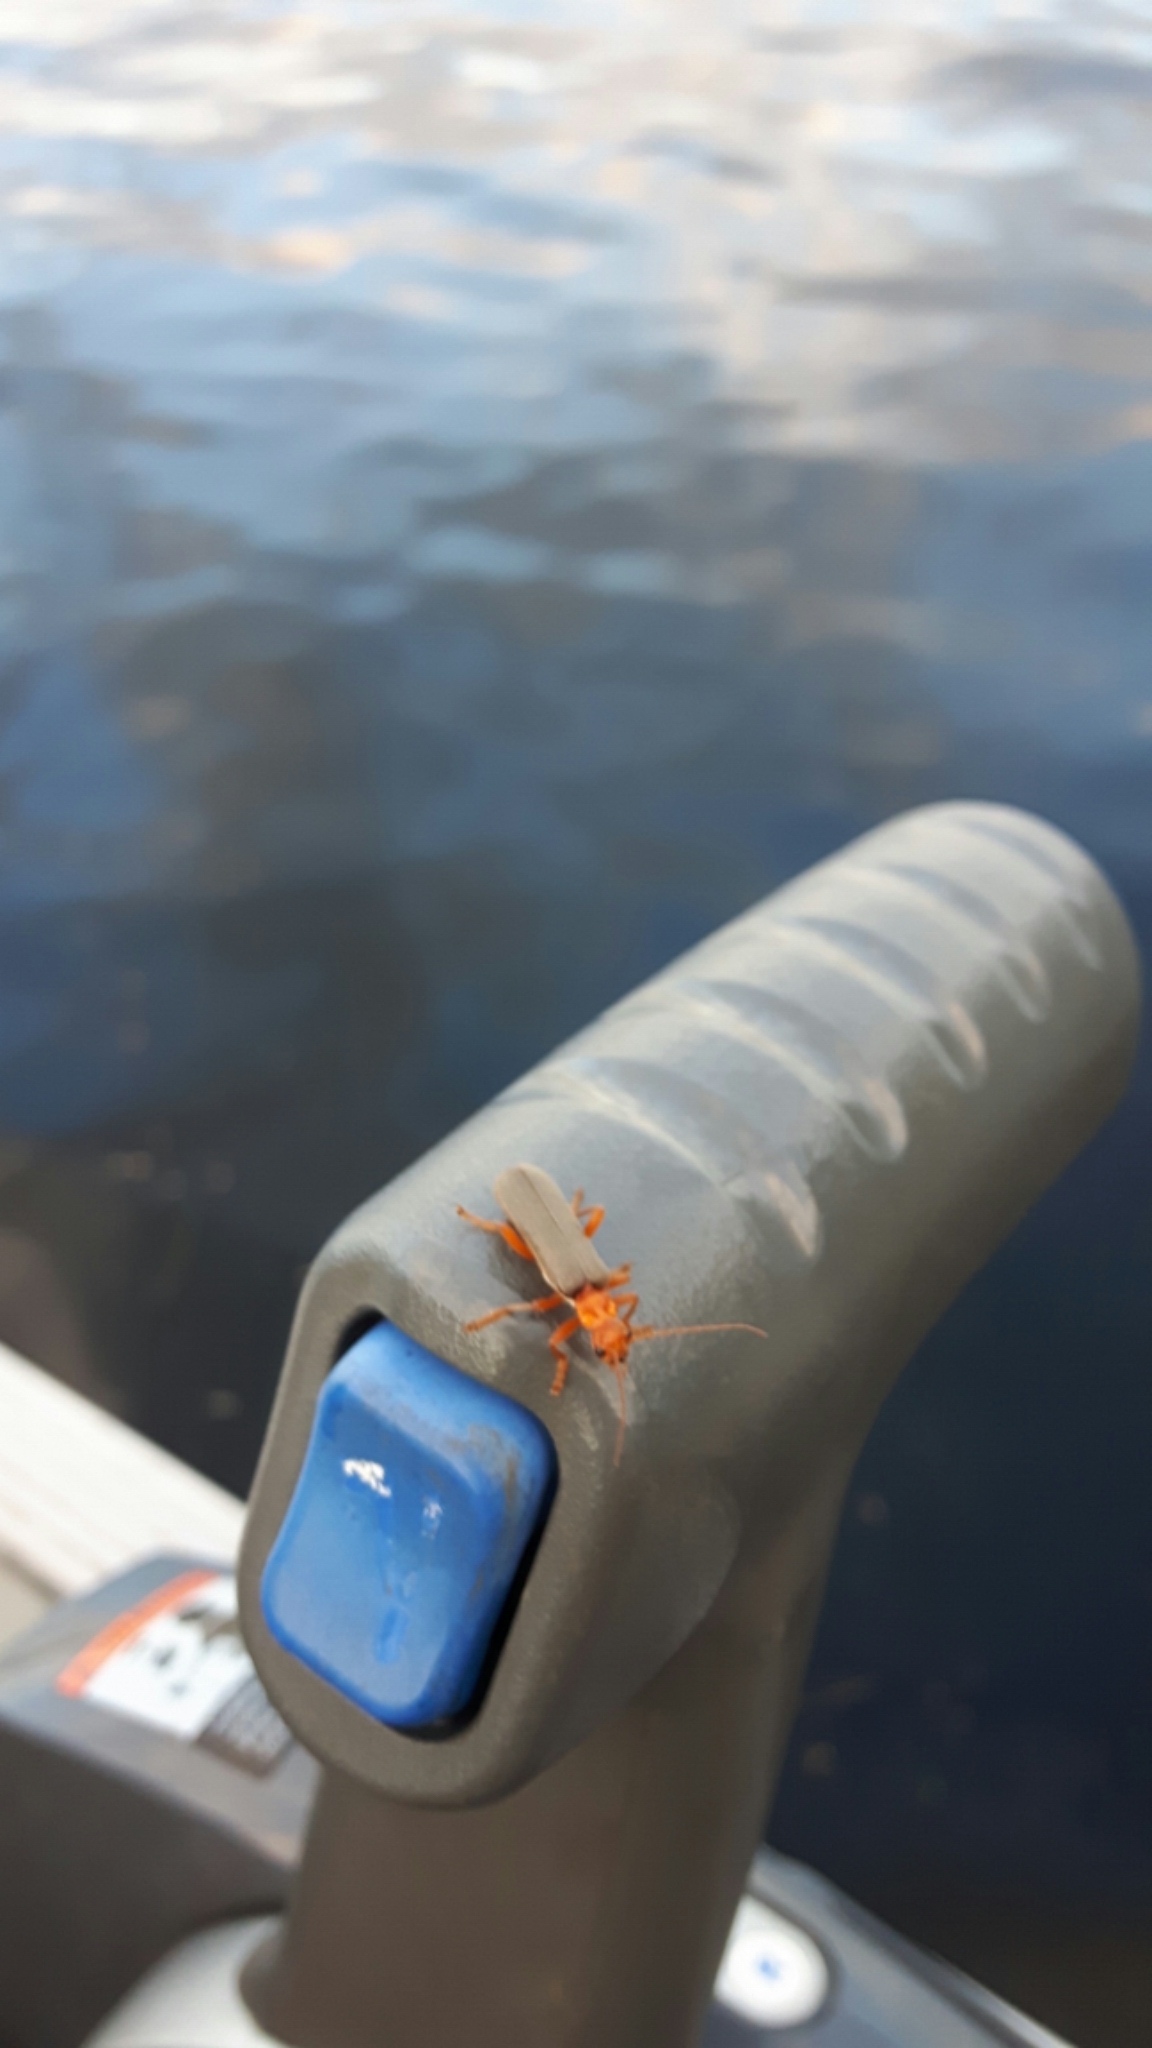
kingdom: Animalia
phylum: Arthropoda
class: Insecta
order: Coleoptera
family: Cantharidae
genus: Pacificanthia
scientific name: Pacificanthia rotundicollis
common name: Brown leatherwing beetle
